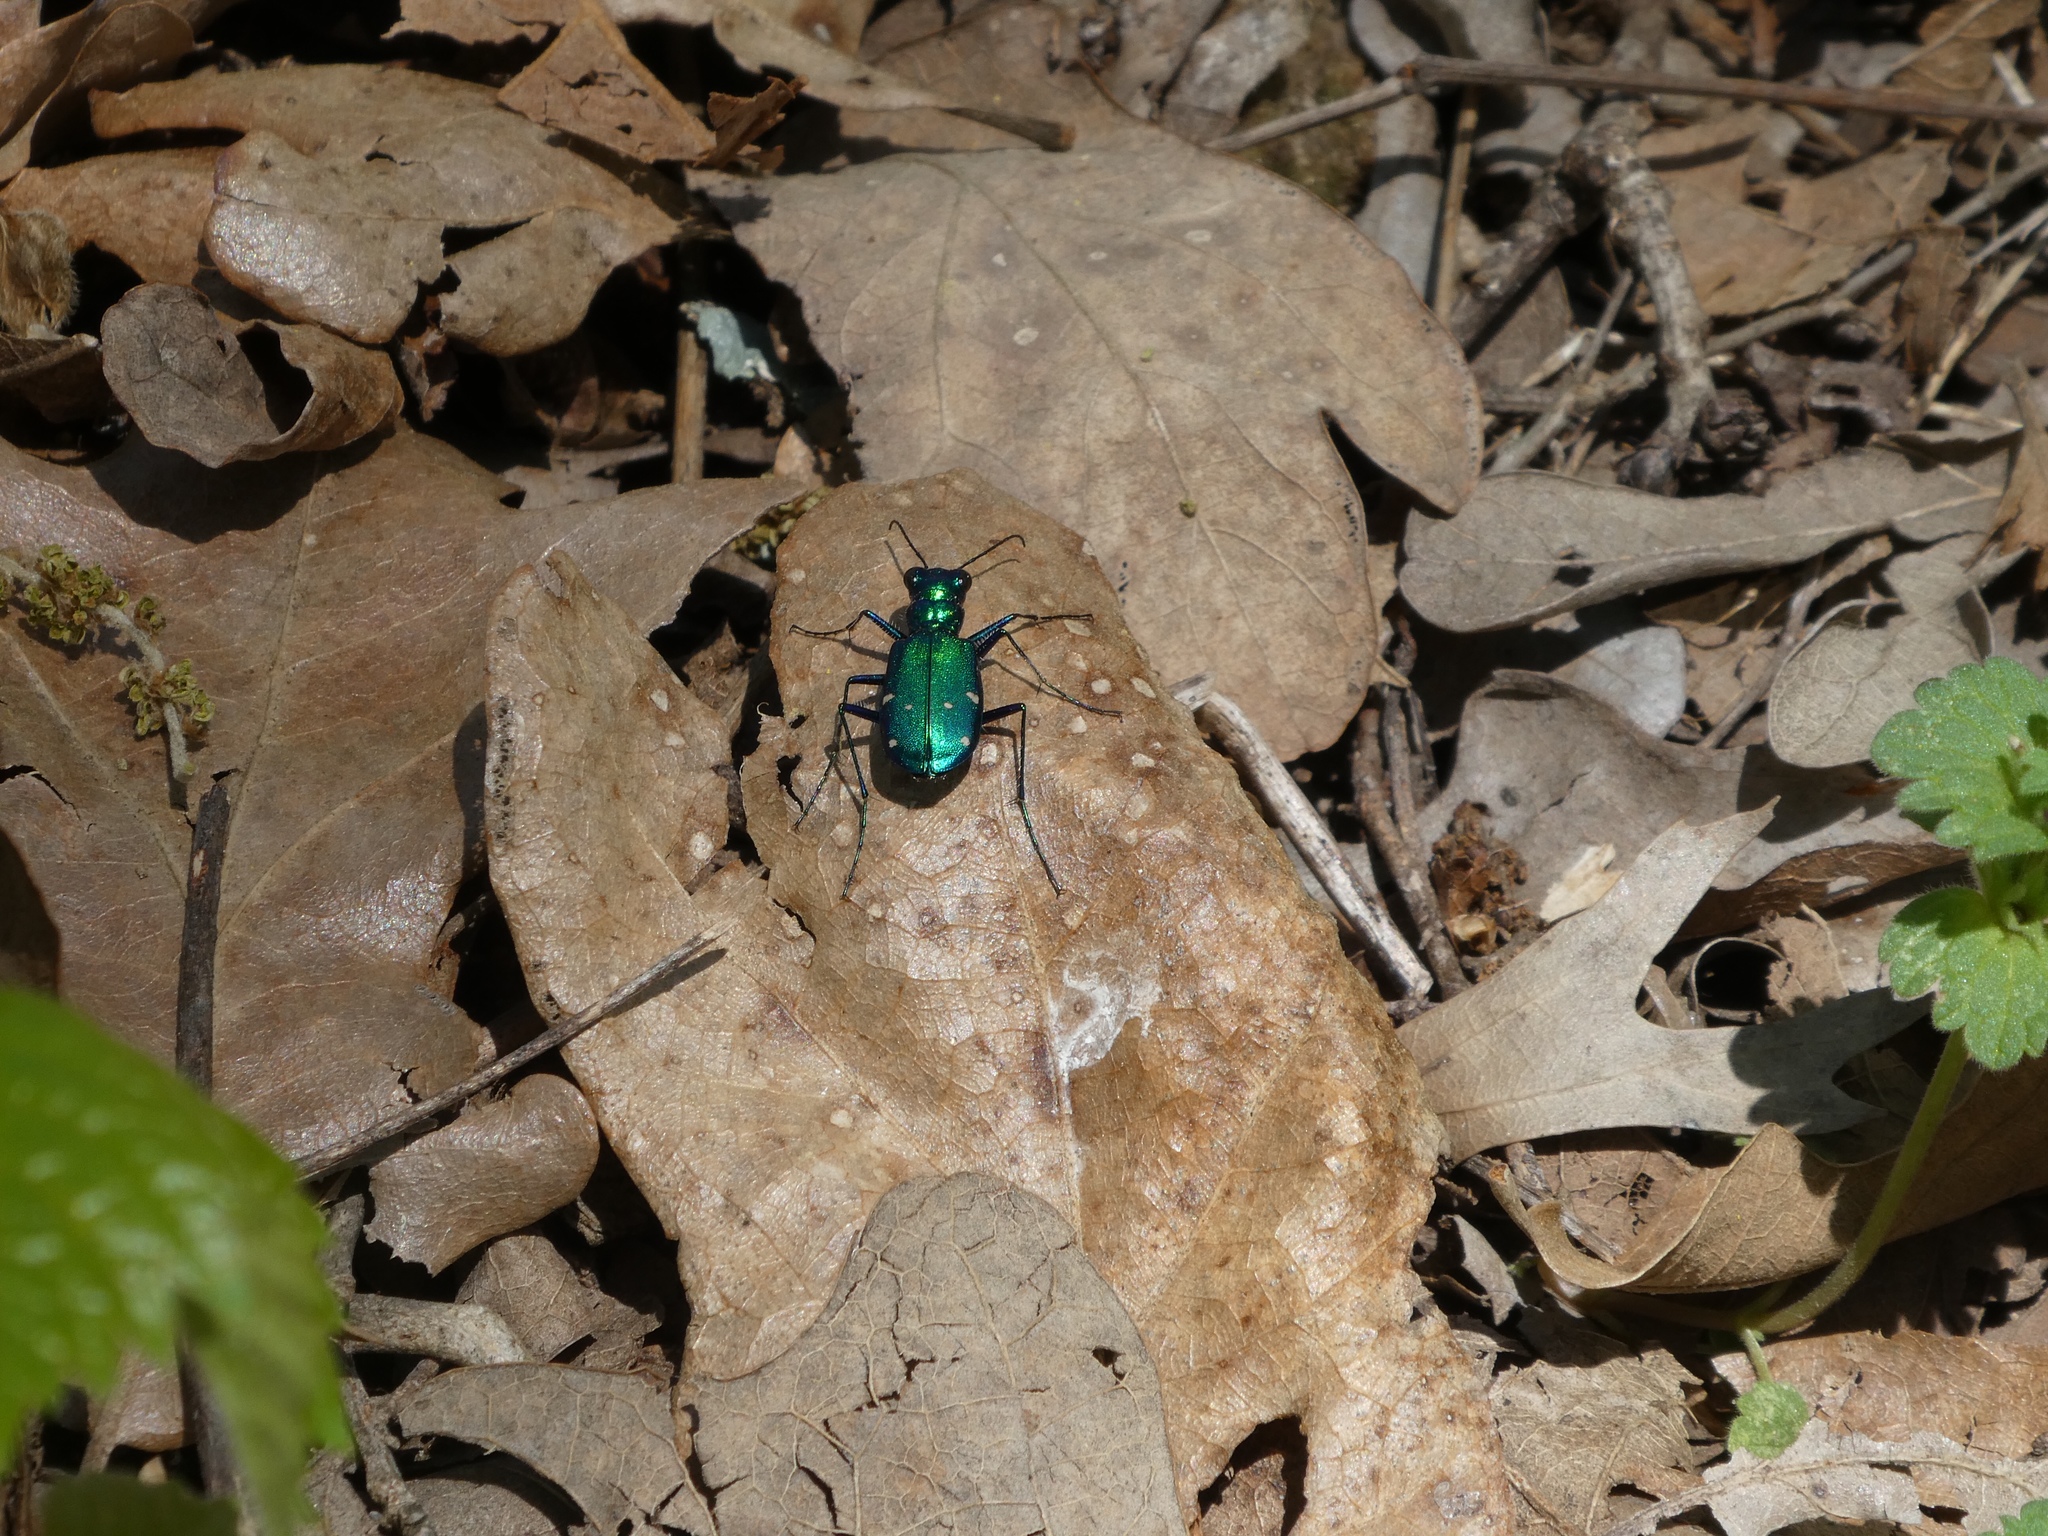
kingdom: Animalia
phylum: Arthropoda
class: Insecta
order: Coleoptera
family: Carabidae
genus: Cicindela
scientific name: Cicindela sexguttata
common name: Six-spotted tiger beetle
